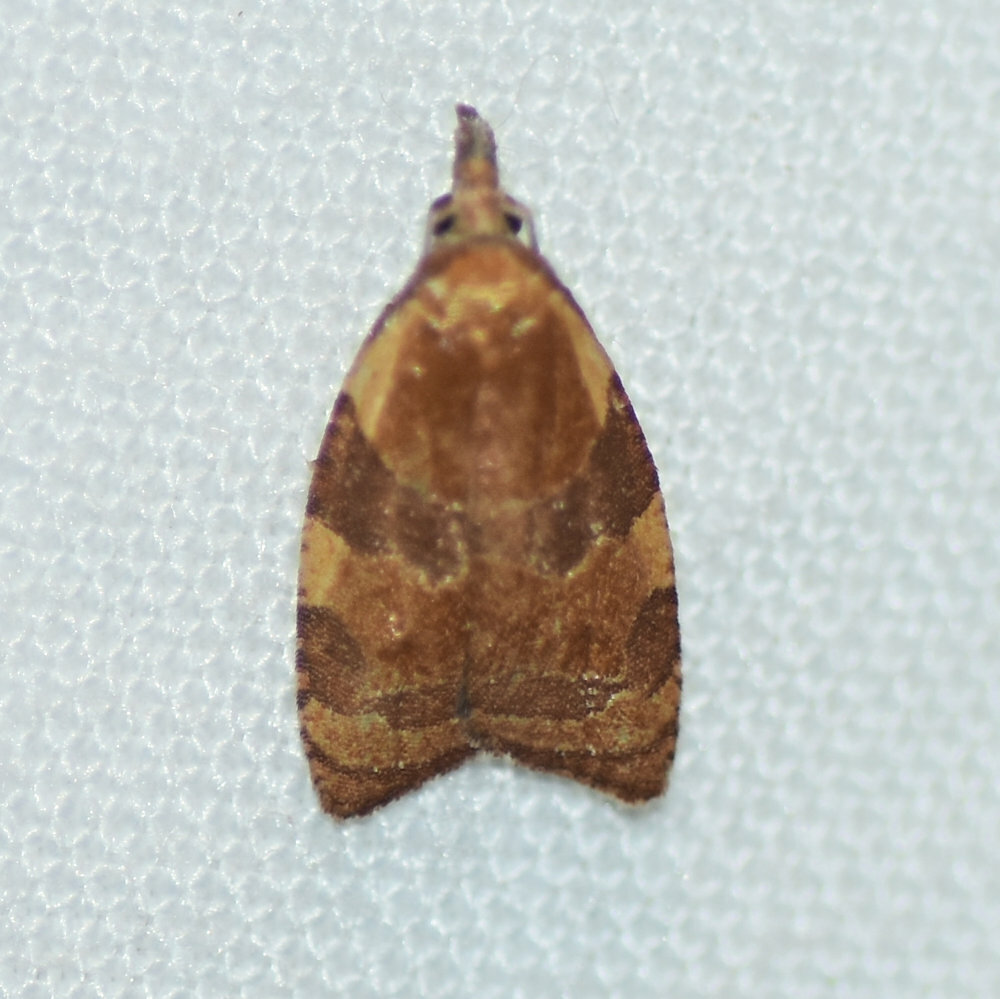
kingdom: Animalia
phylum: Arthropoda
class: Insecta
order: Lepidoptera
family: Tortricidae
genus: Cenopis
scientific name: Cenopis diluticostana
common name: Spring dead-leaf roller moth
